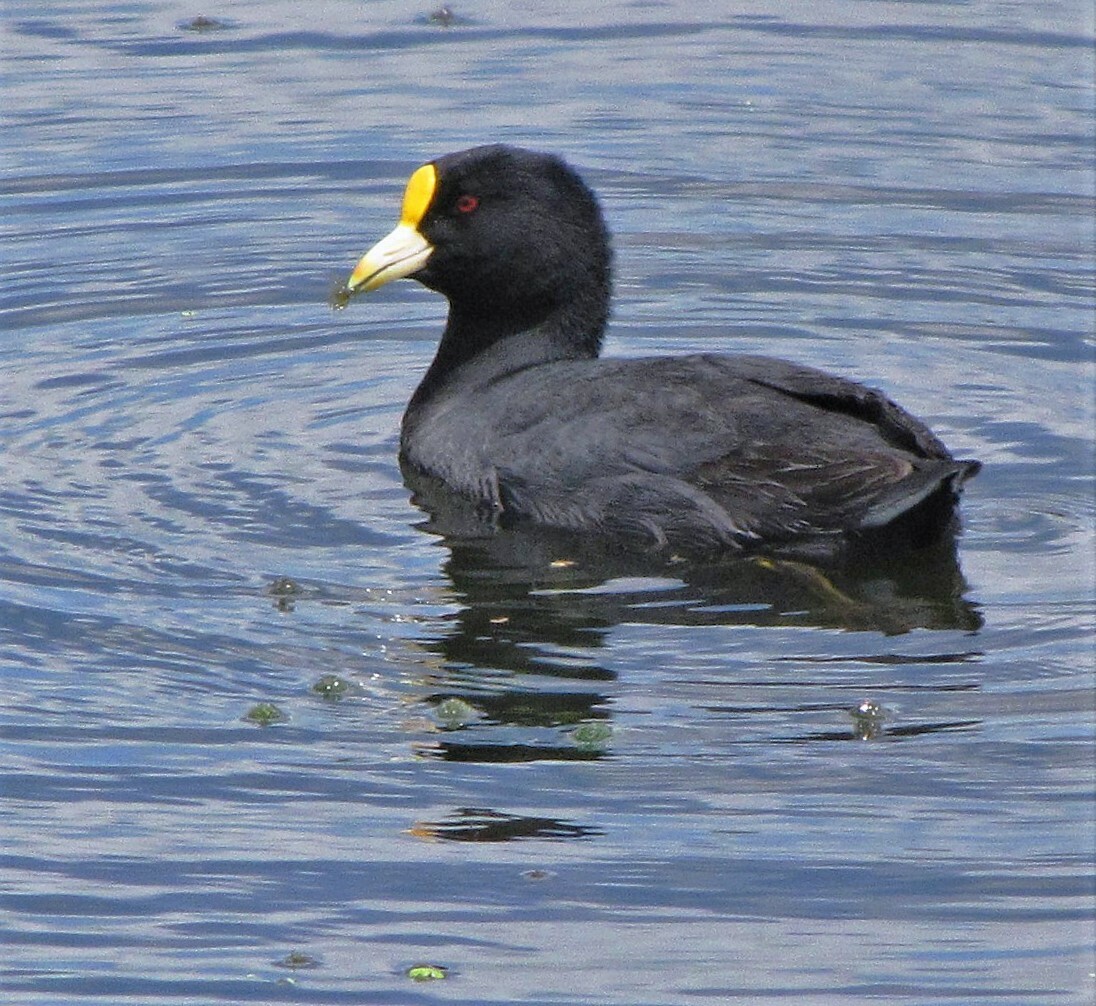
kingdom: Animalia
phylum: Chordata
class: Aves
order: Gruiformes
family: Rallidae
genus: Fulica
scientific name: Fulica leucoptera
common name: White-winged coot
